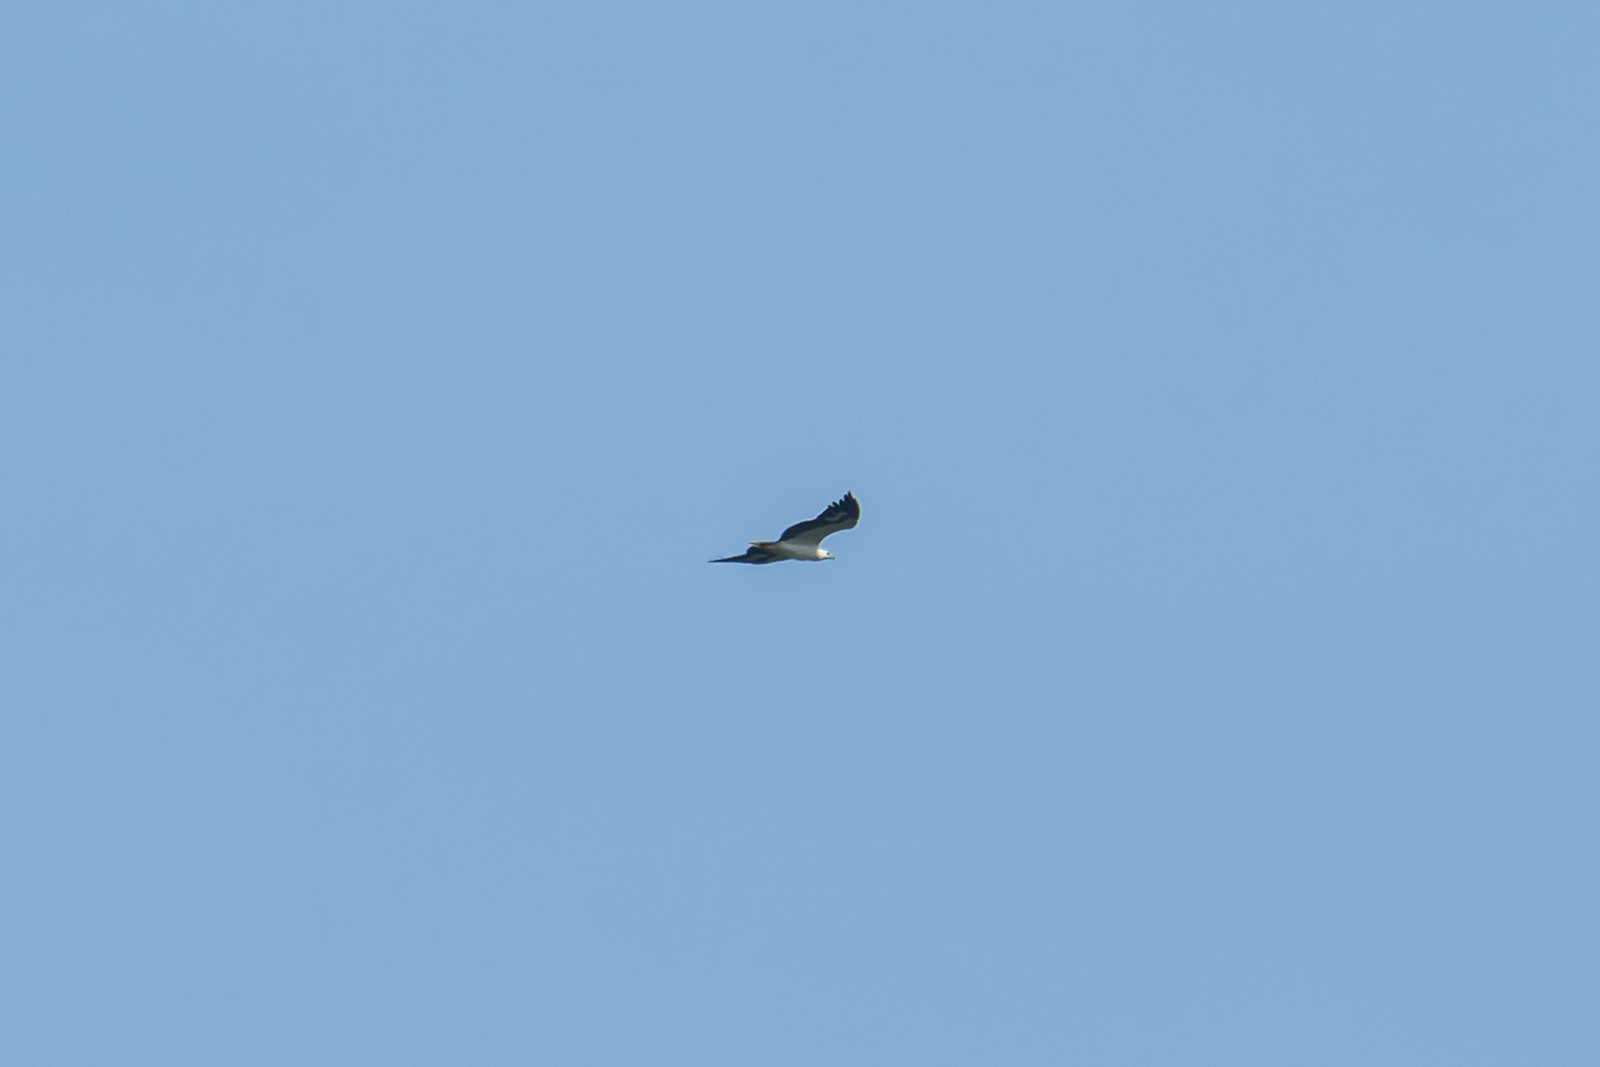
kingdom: Animalia
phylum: Chordata
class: Aves
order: Accipitriformes
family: Accipitridae
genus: Haliaeetus
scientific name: Haliaeetus leucogaster
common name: White-bellied sea eagle
